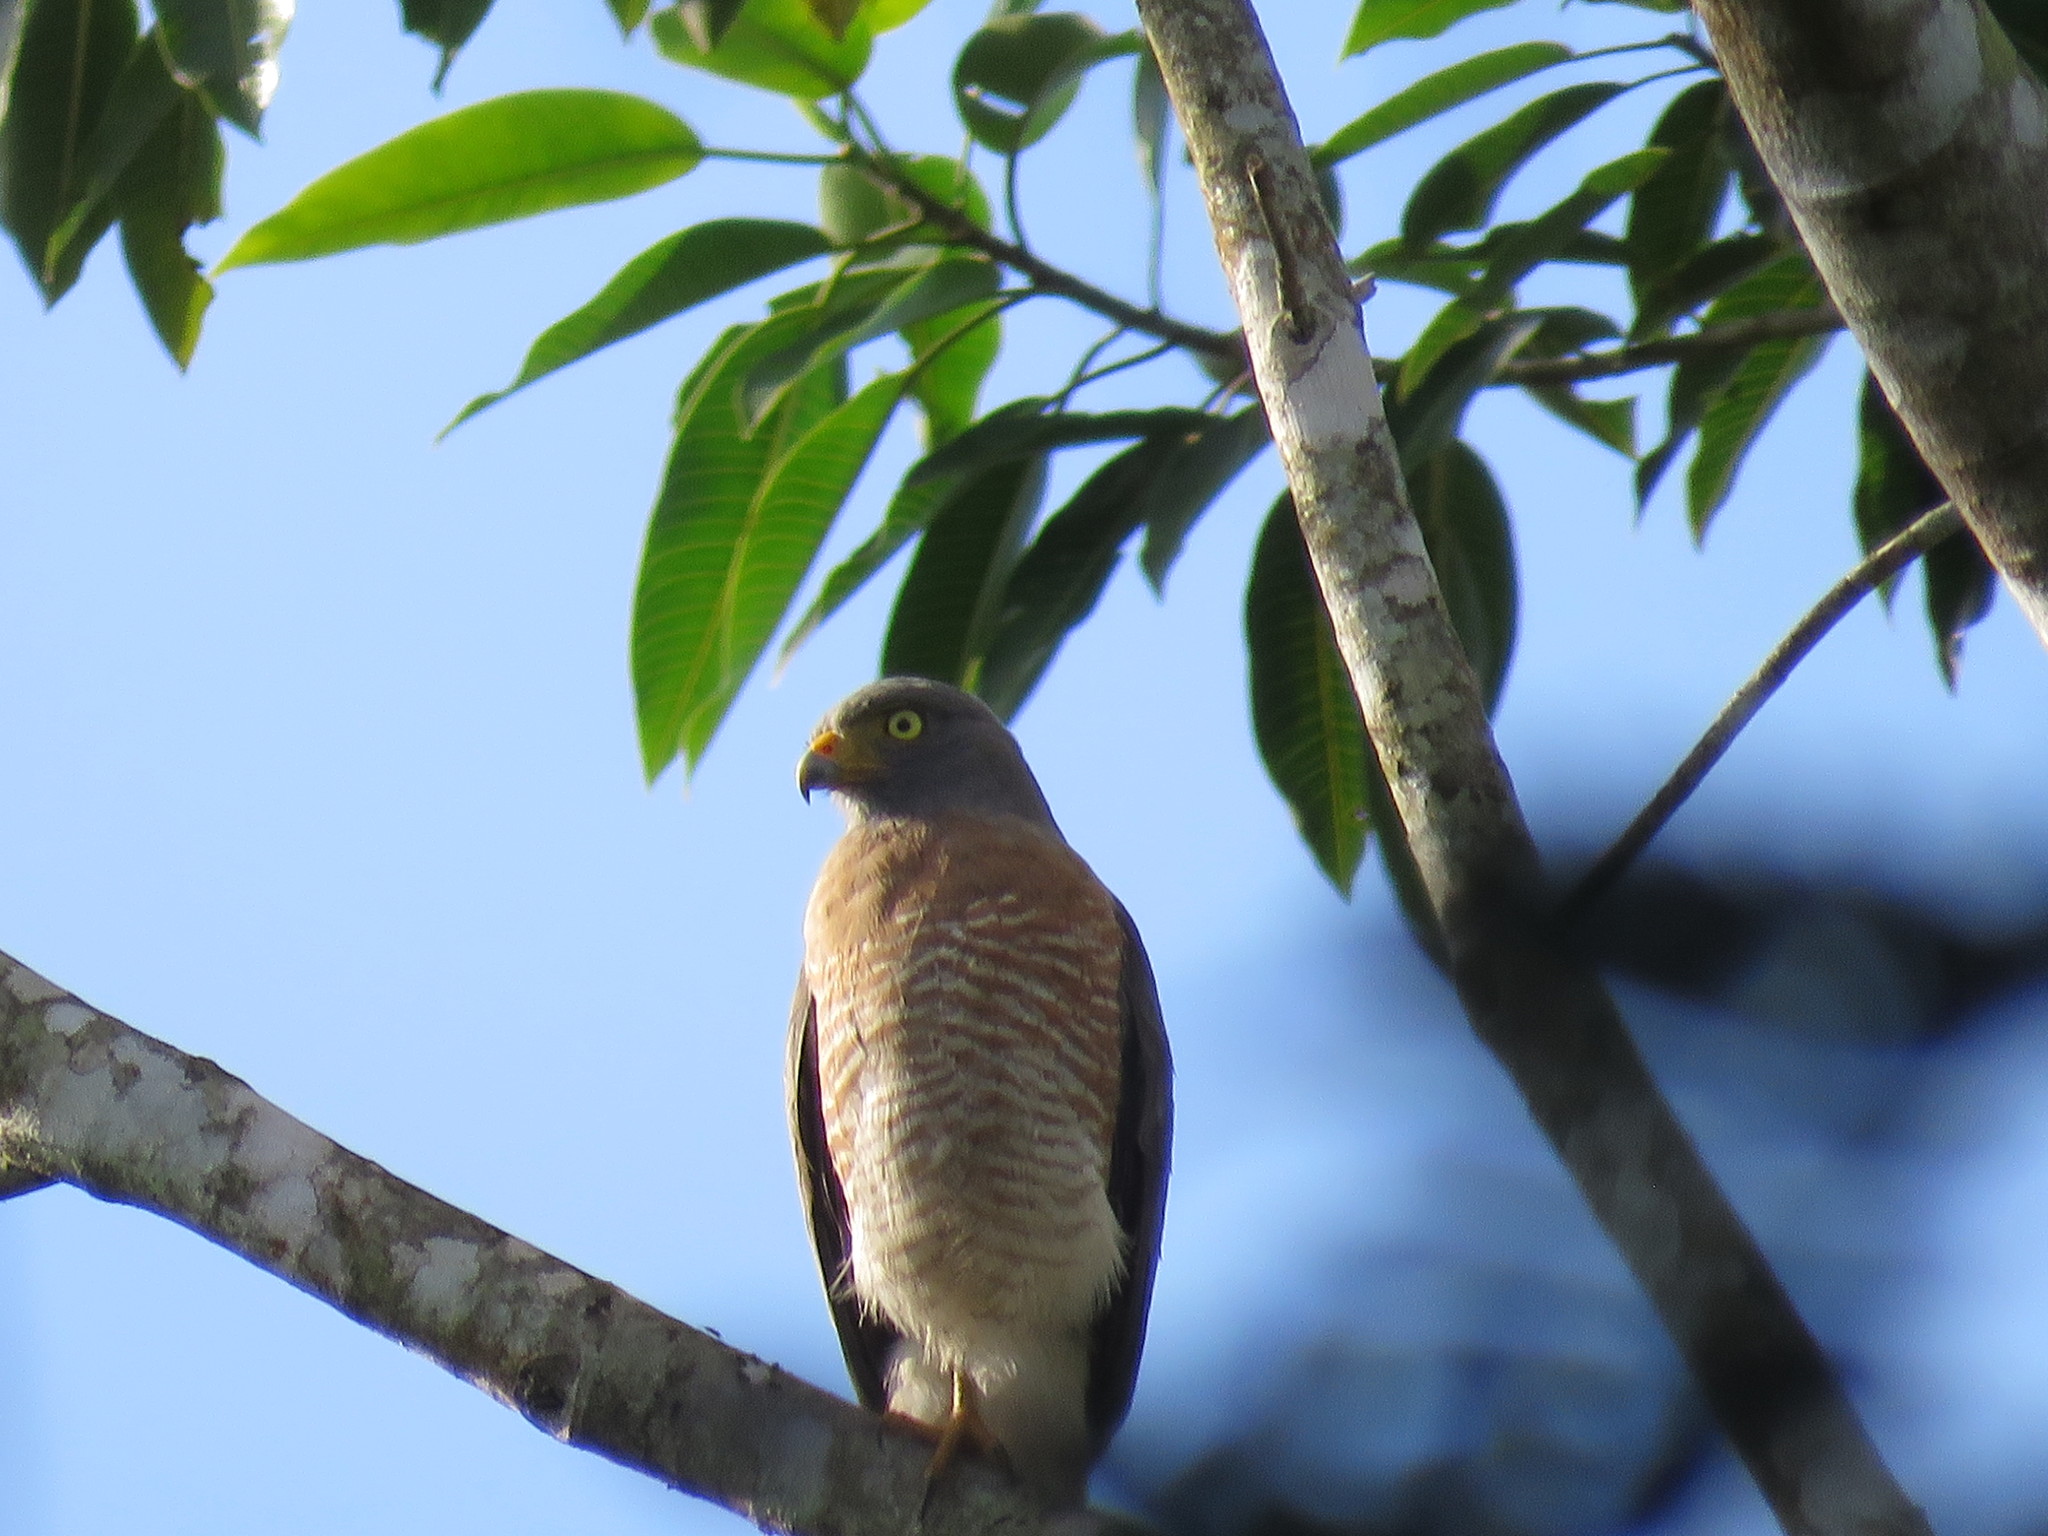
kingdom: Animalia
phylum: Chordata
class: Aves
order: Accipitriformes
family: Accipitridae
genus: Rupornis
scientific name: Rupornis magnirostris
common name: Roadside hawk
